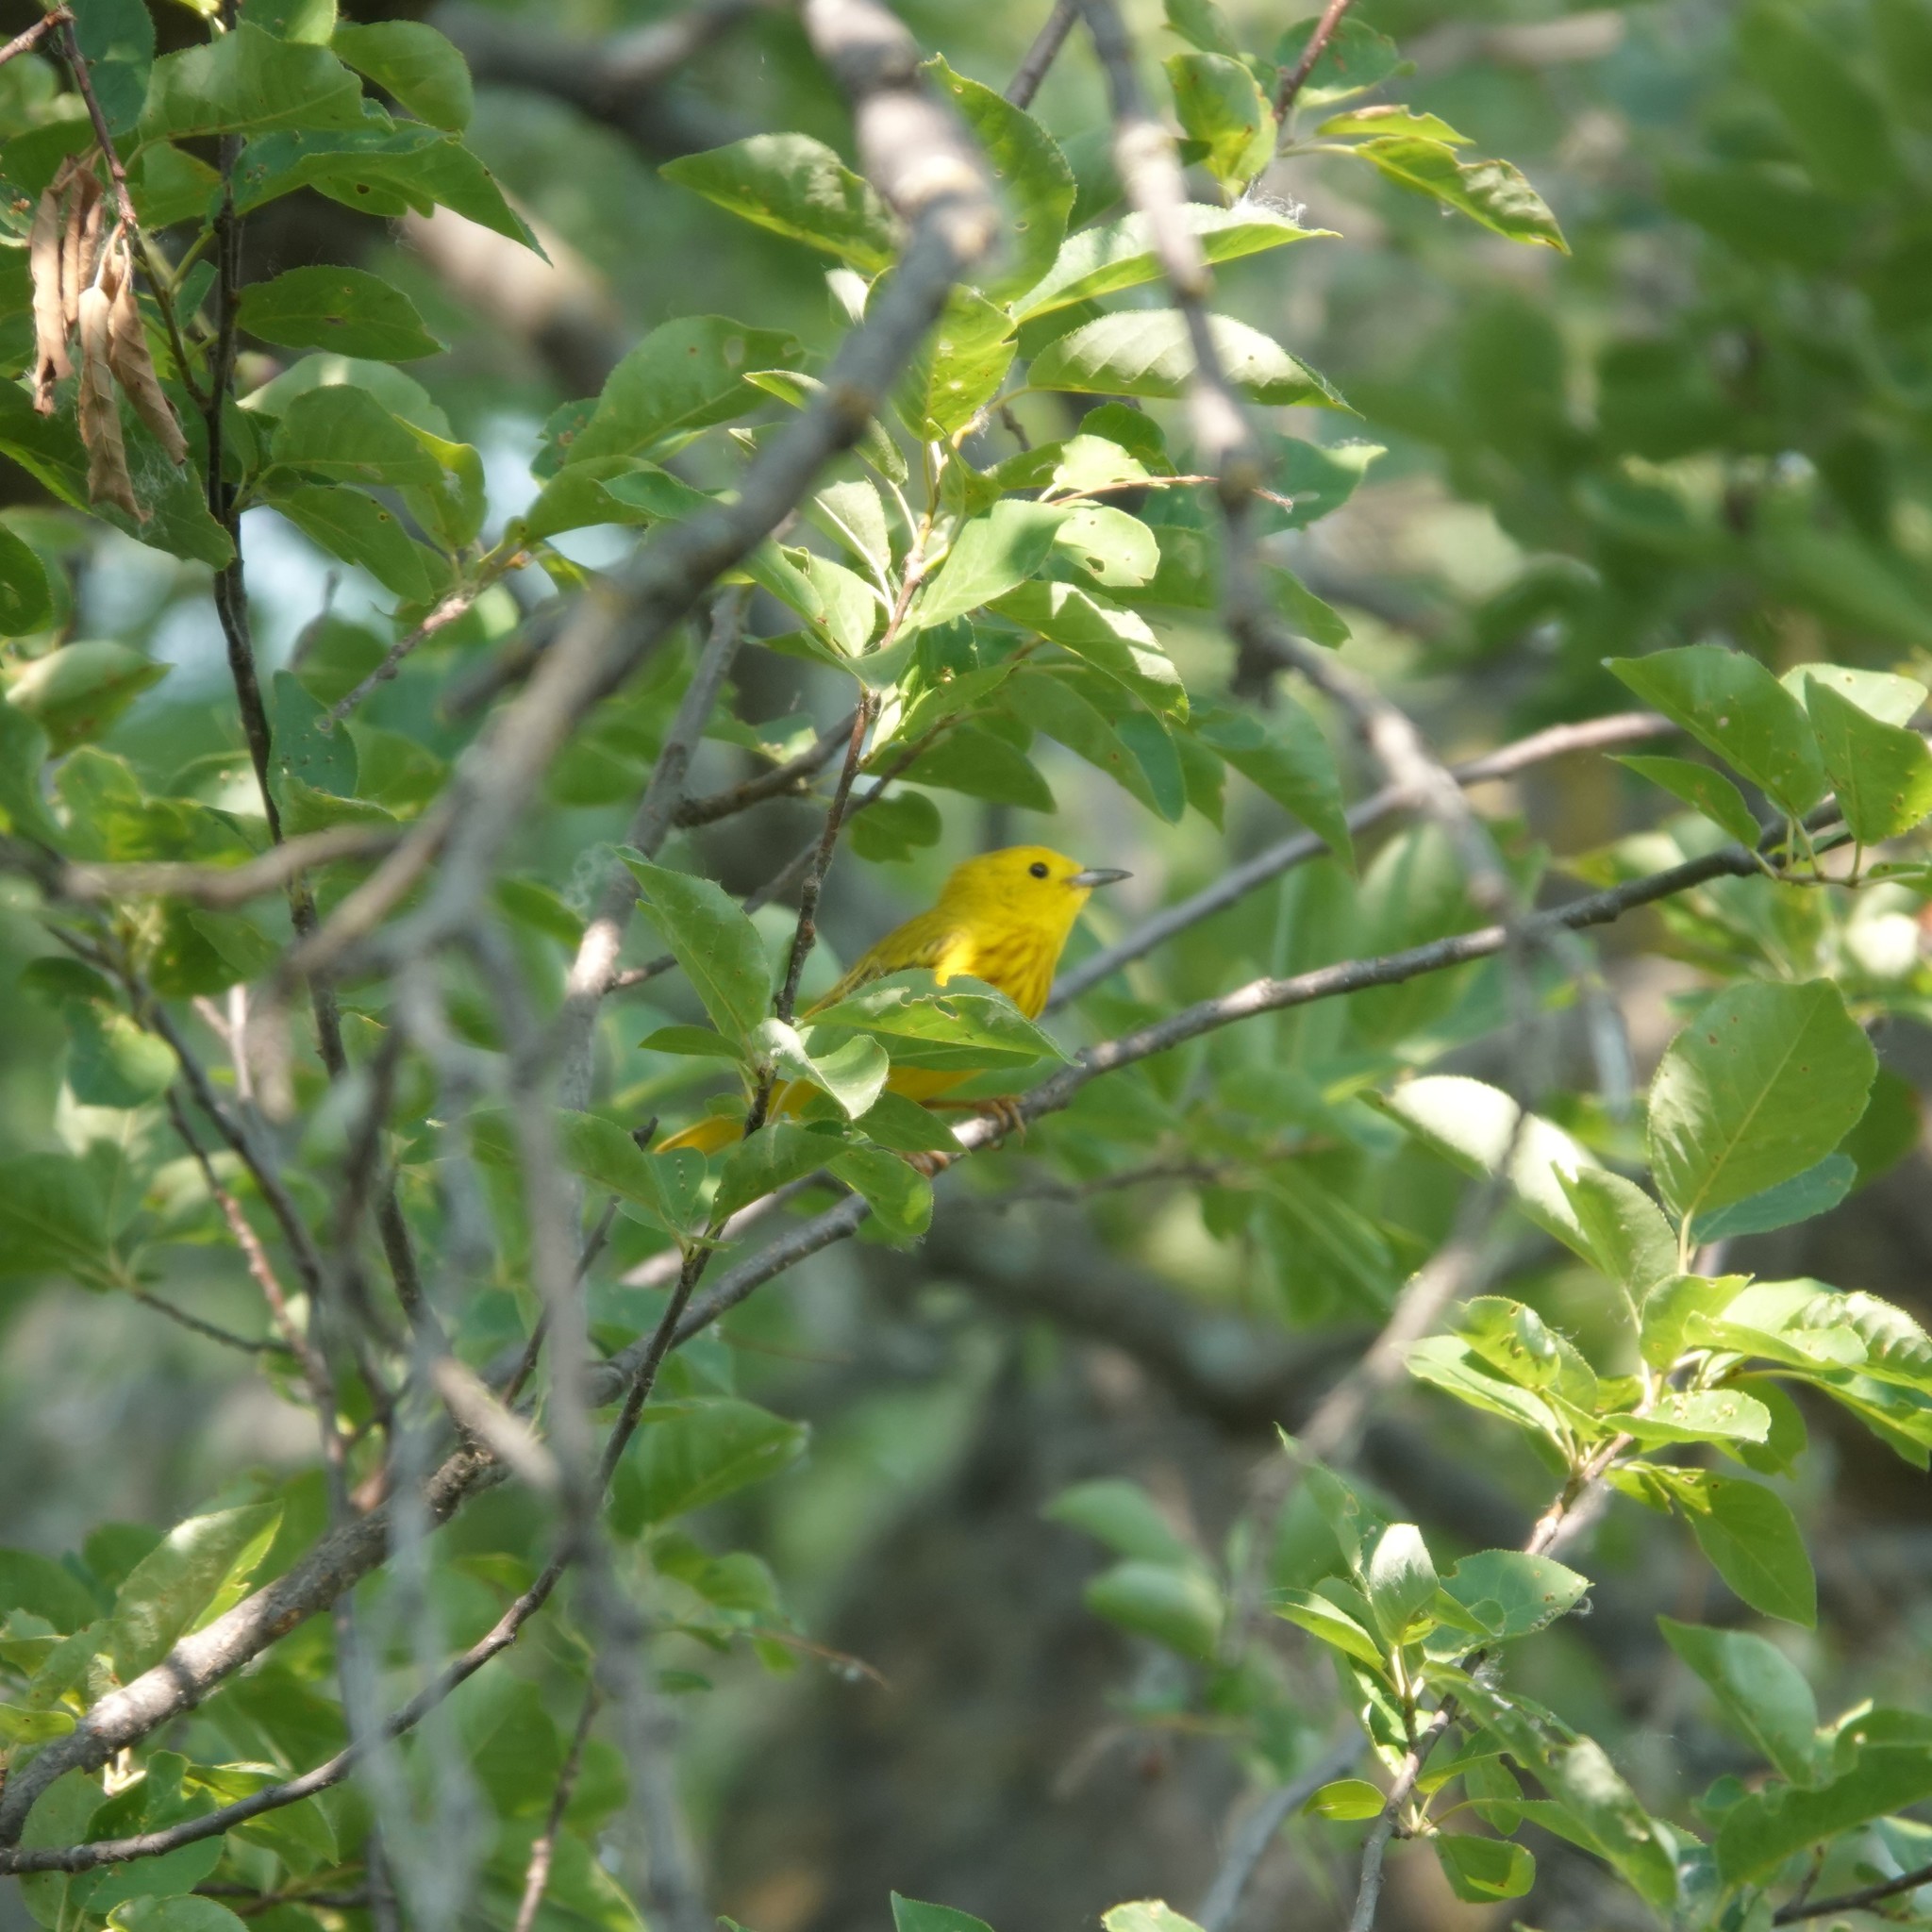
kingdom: Animalia
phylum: Chordata
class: Aves
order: Passeriformes
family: Parulidae
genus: Setophaga
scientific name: Setophaga petechia
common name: Yellow warbler
